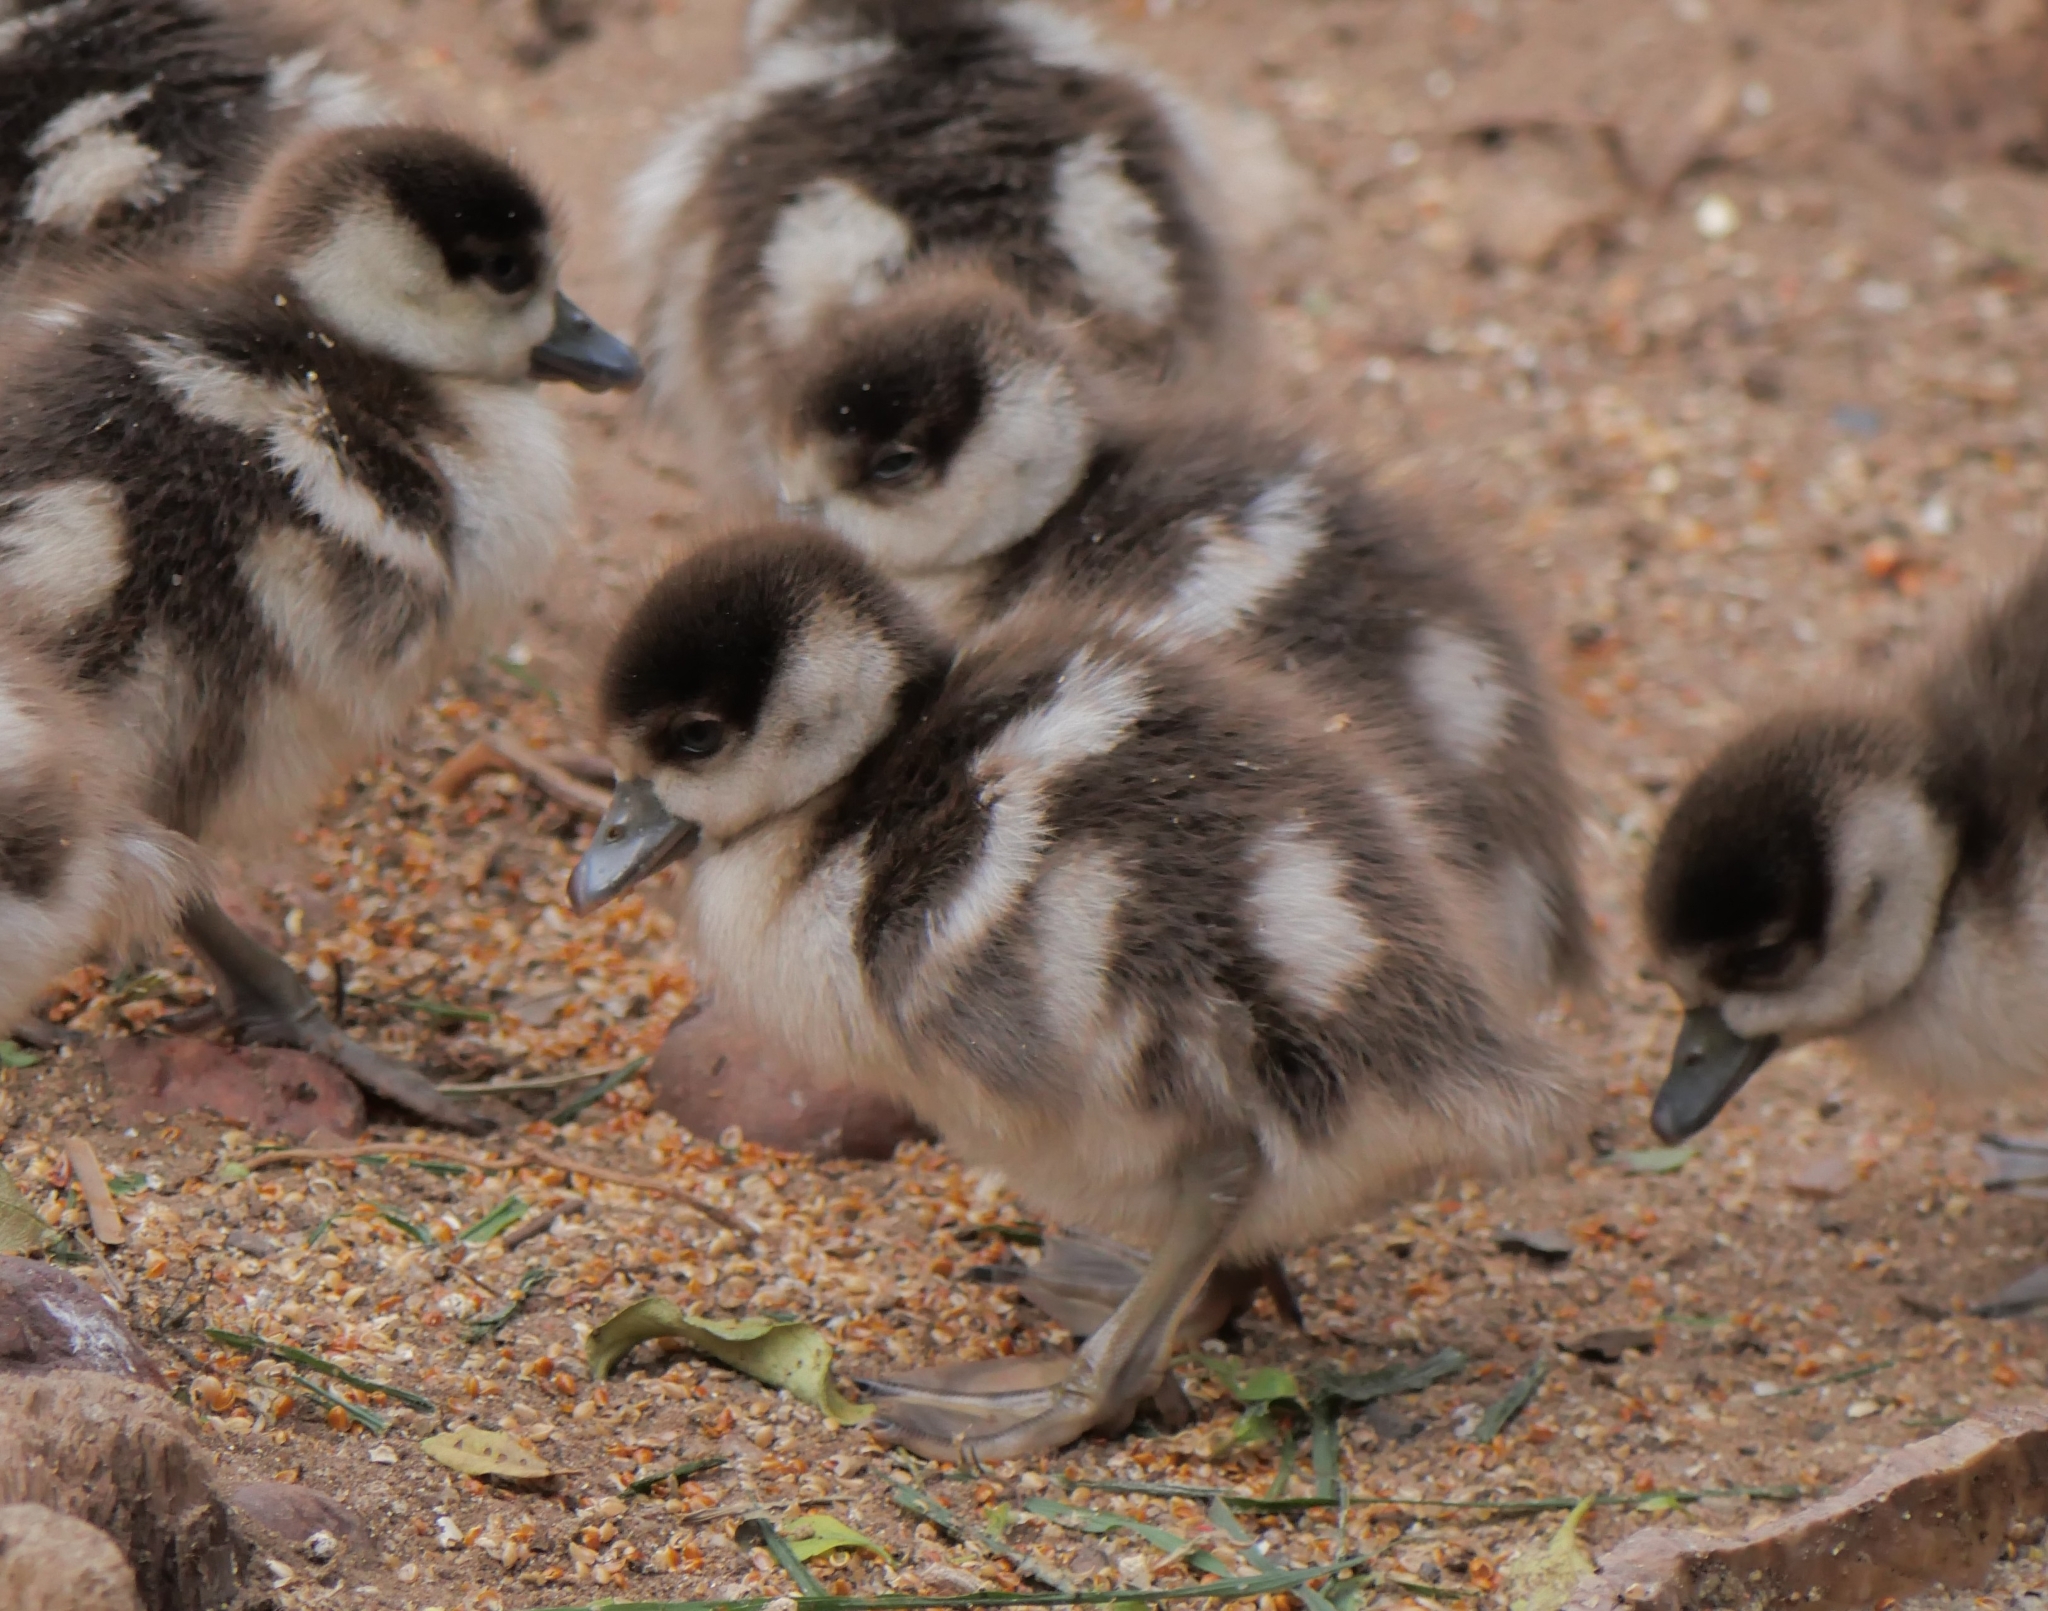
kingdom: Animalia
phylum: Chordata
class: Aves
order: Anseriformes
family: Anatidae
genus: Alopochen
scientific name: Alopochen aegyptiaca
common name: Egyptian goose
